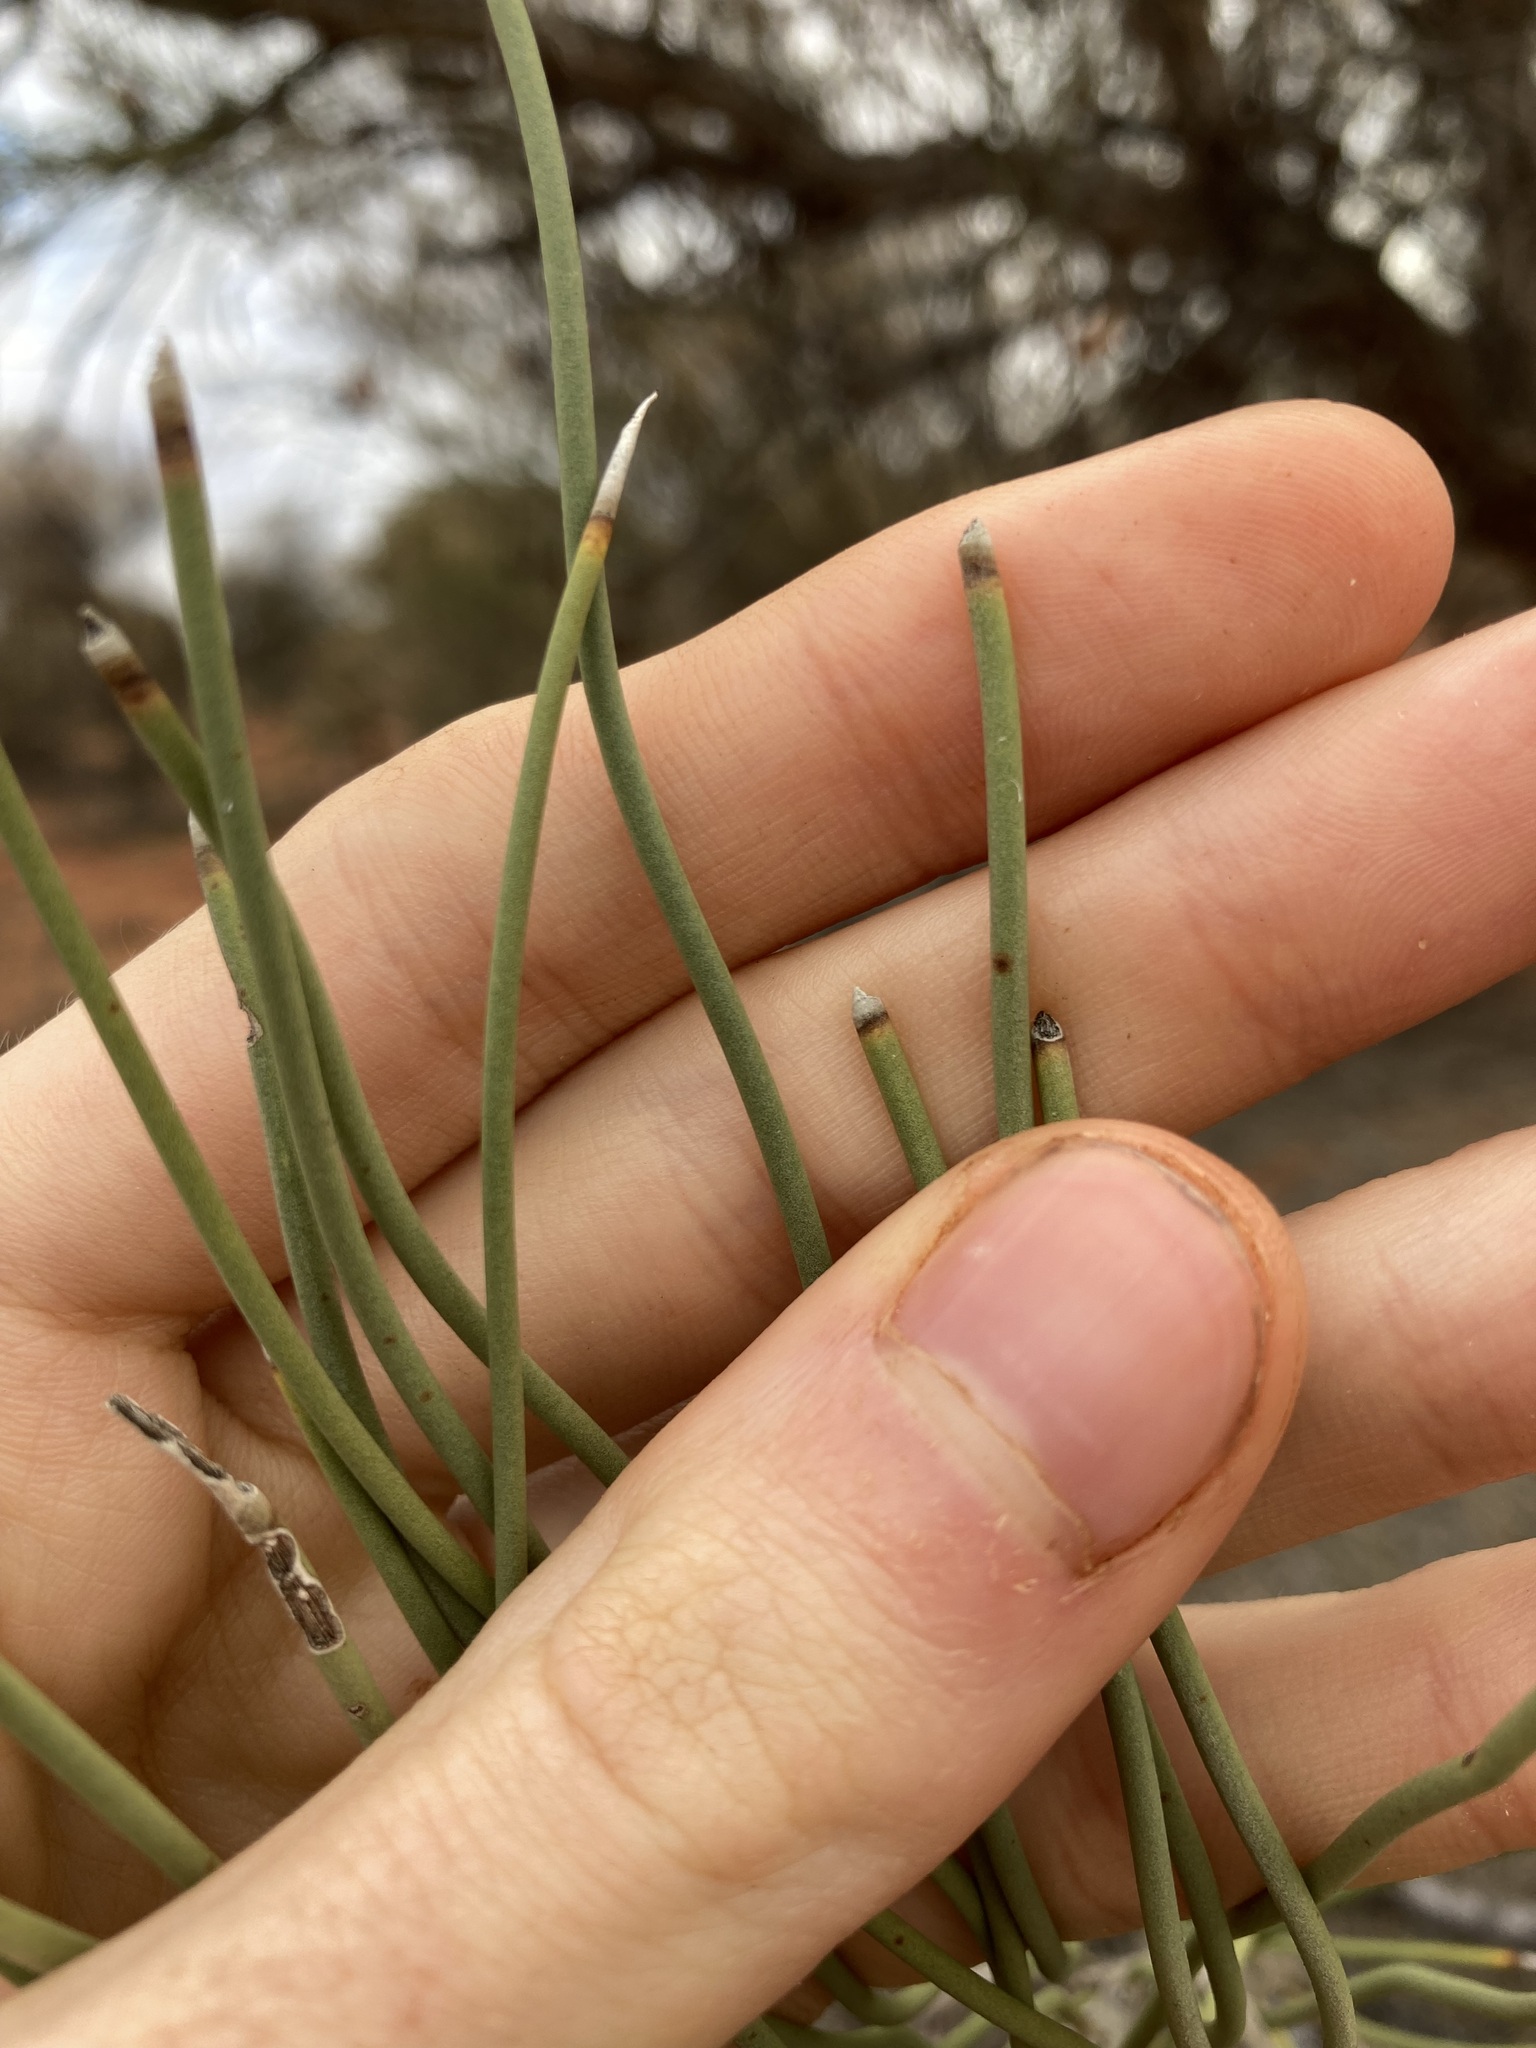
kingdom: Plantae
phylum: Tracheophyta
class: Magnoliopsida
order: Proteales
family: Proteaceae
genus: Hakea
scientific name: Hakea lorea
